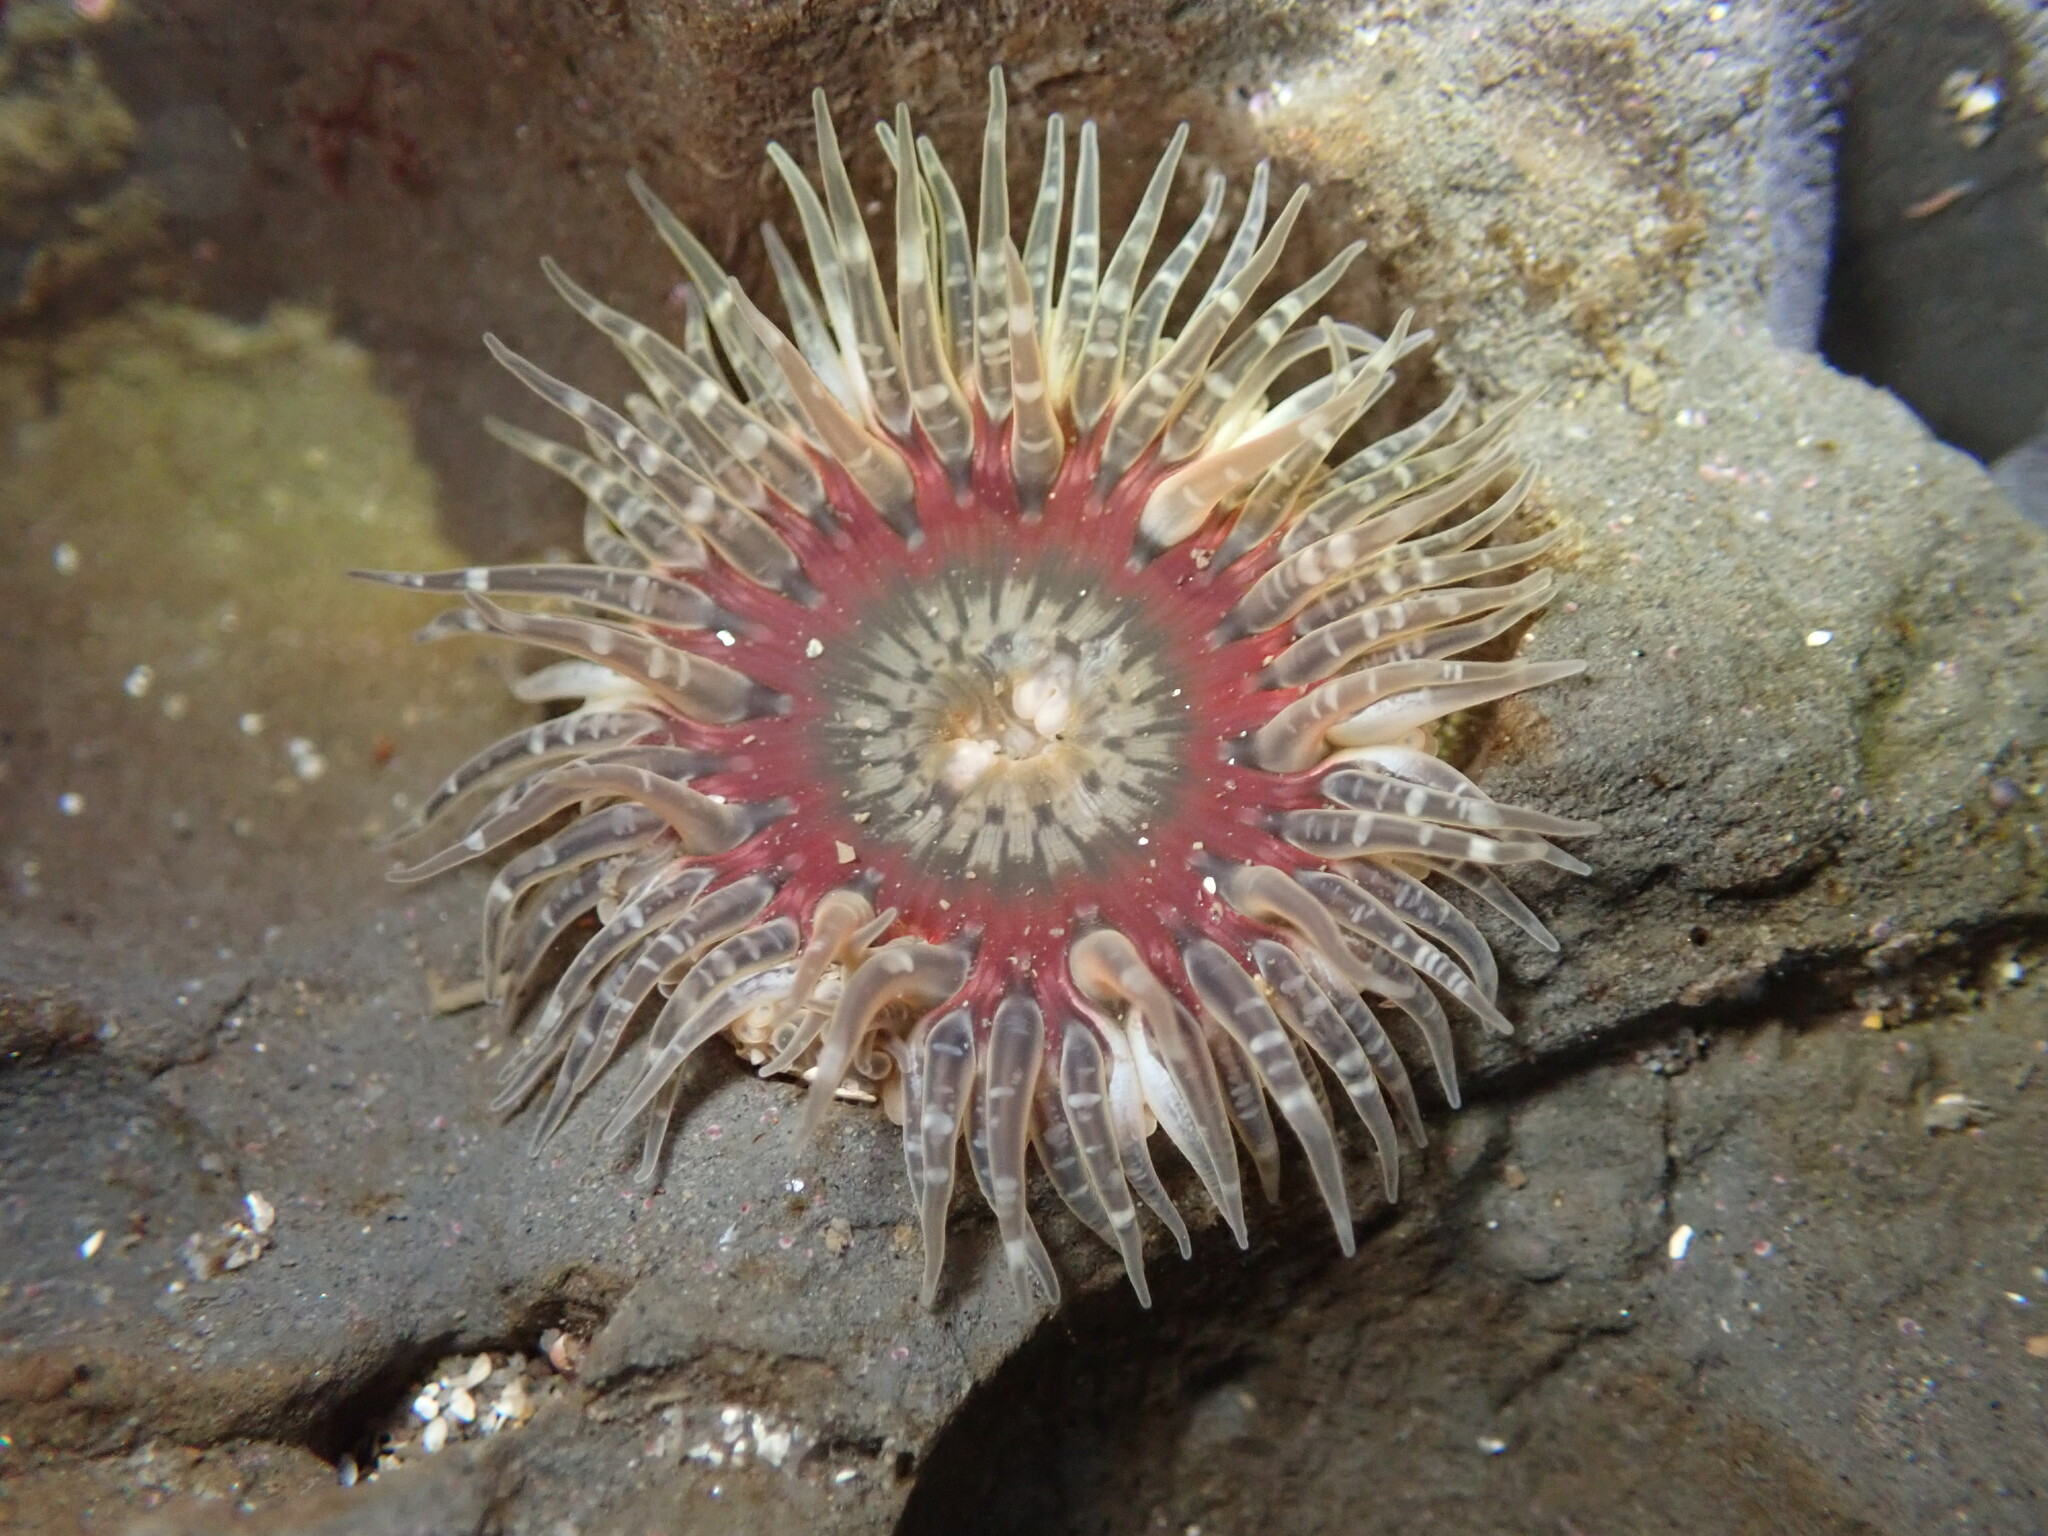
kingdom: Animalia
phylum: Cnidaria
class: Anthozoa
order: Actiniaria
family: Actiniidae
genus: Anthopleura
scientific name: Anthopleura artemisia
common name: Buried sea anemone
